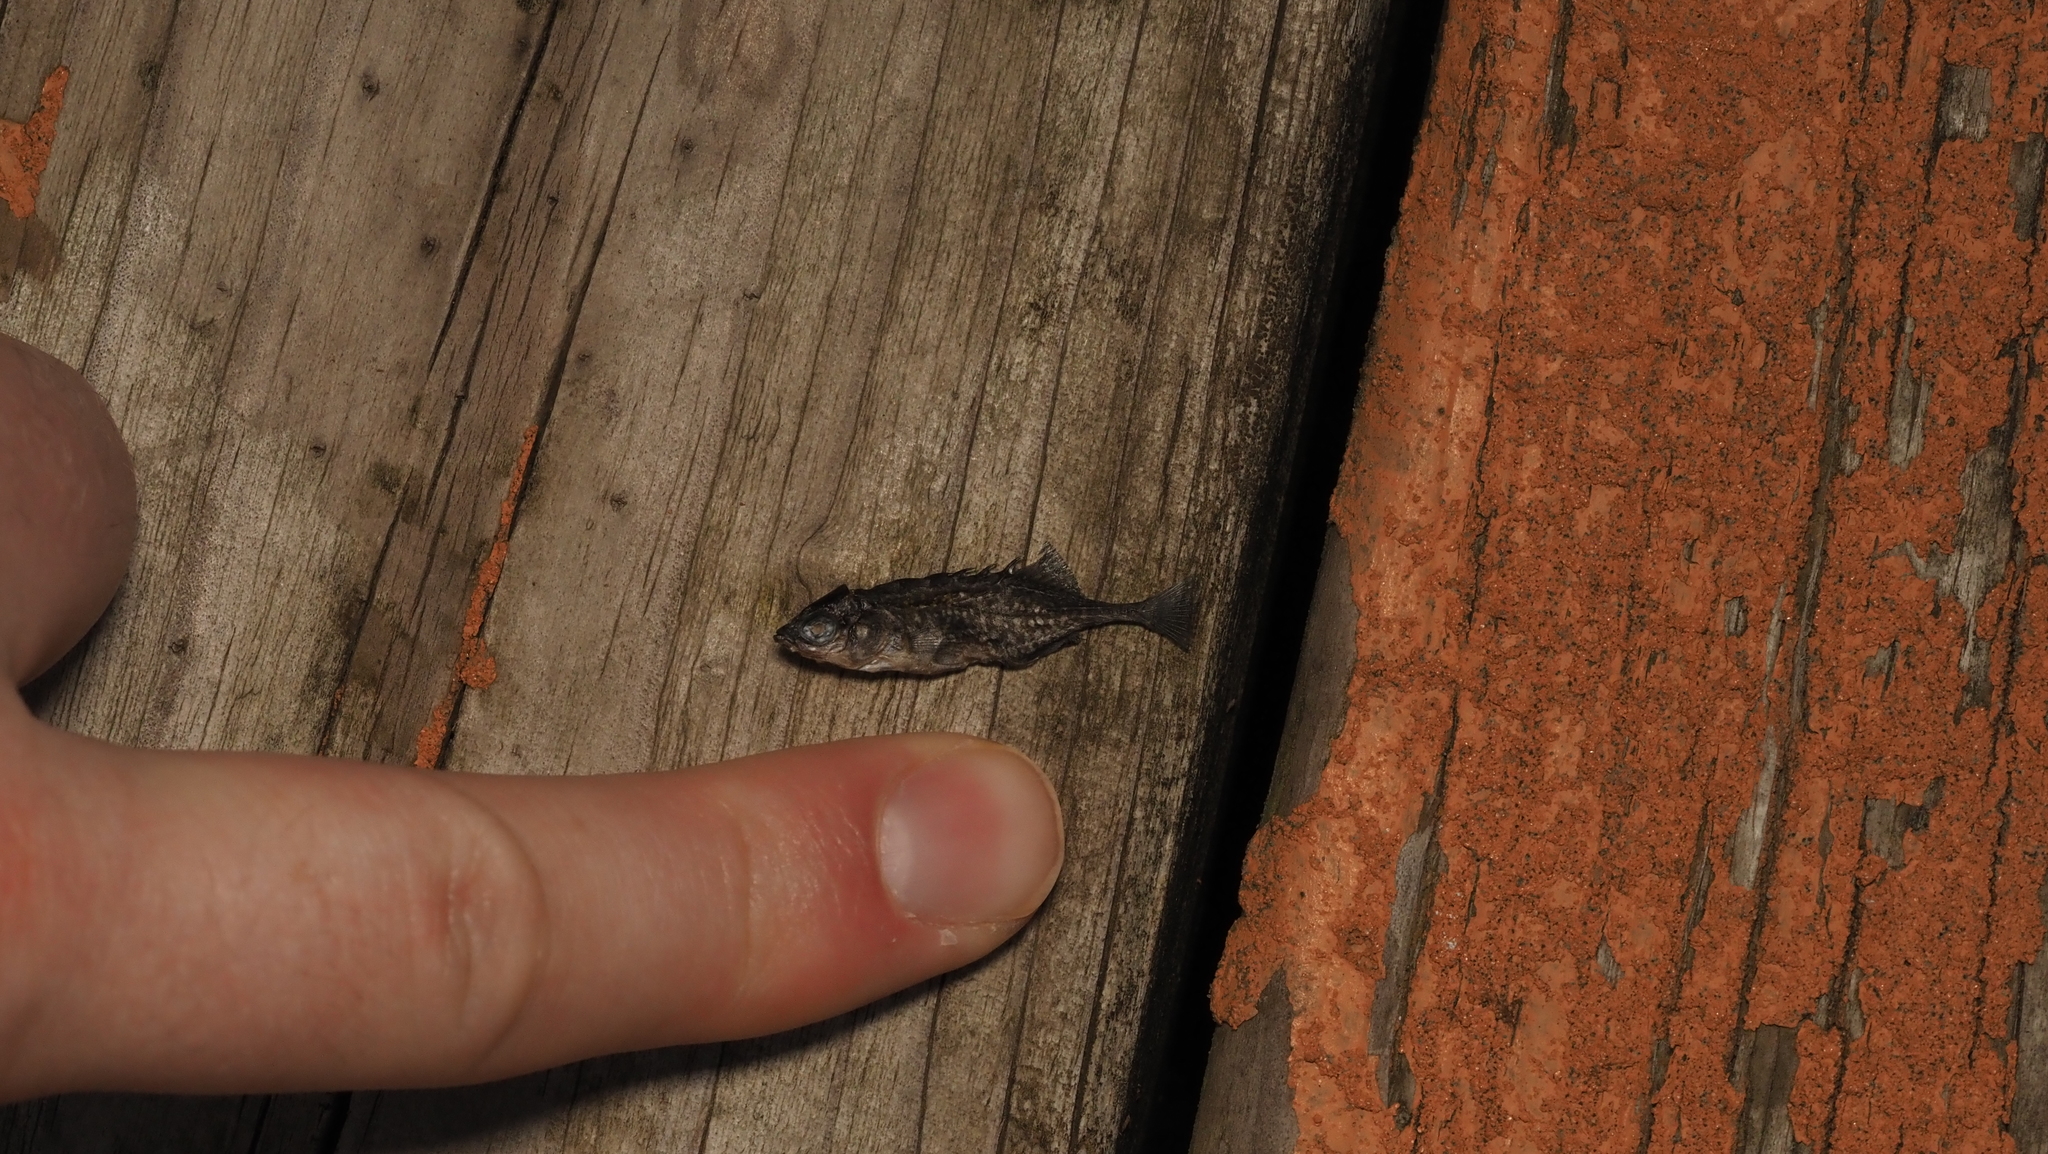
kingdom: Animalia
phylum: Chordata
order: Gasterosteiformes
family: Gasterosteidae
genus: Culaea
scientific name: Culaea inconstans
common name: Brook stickleback
